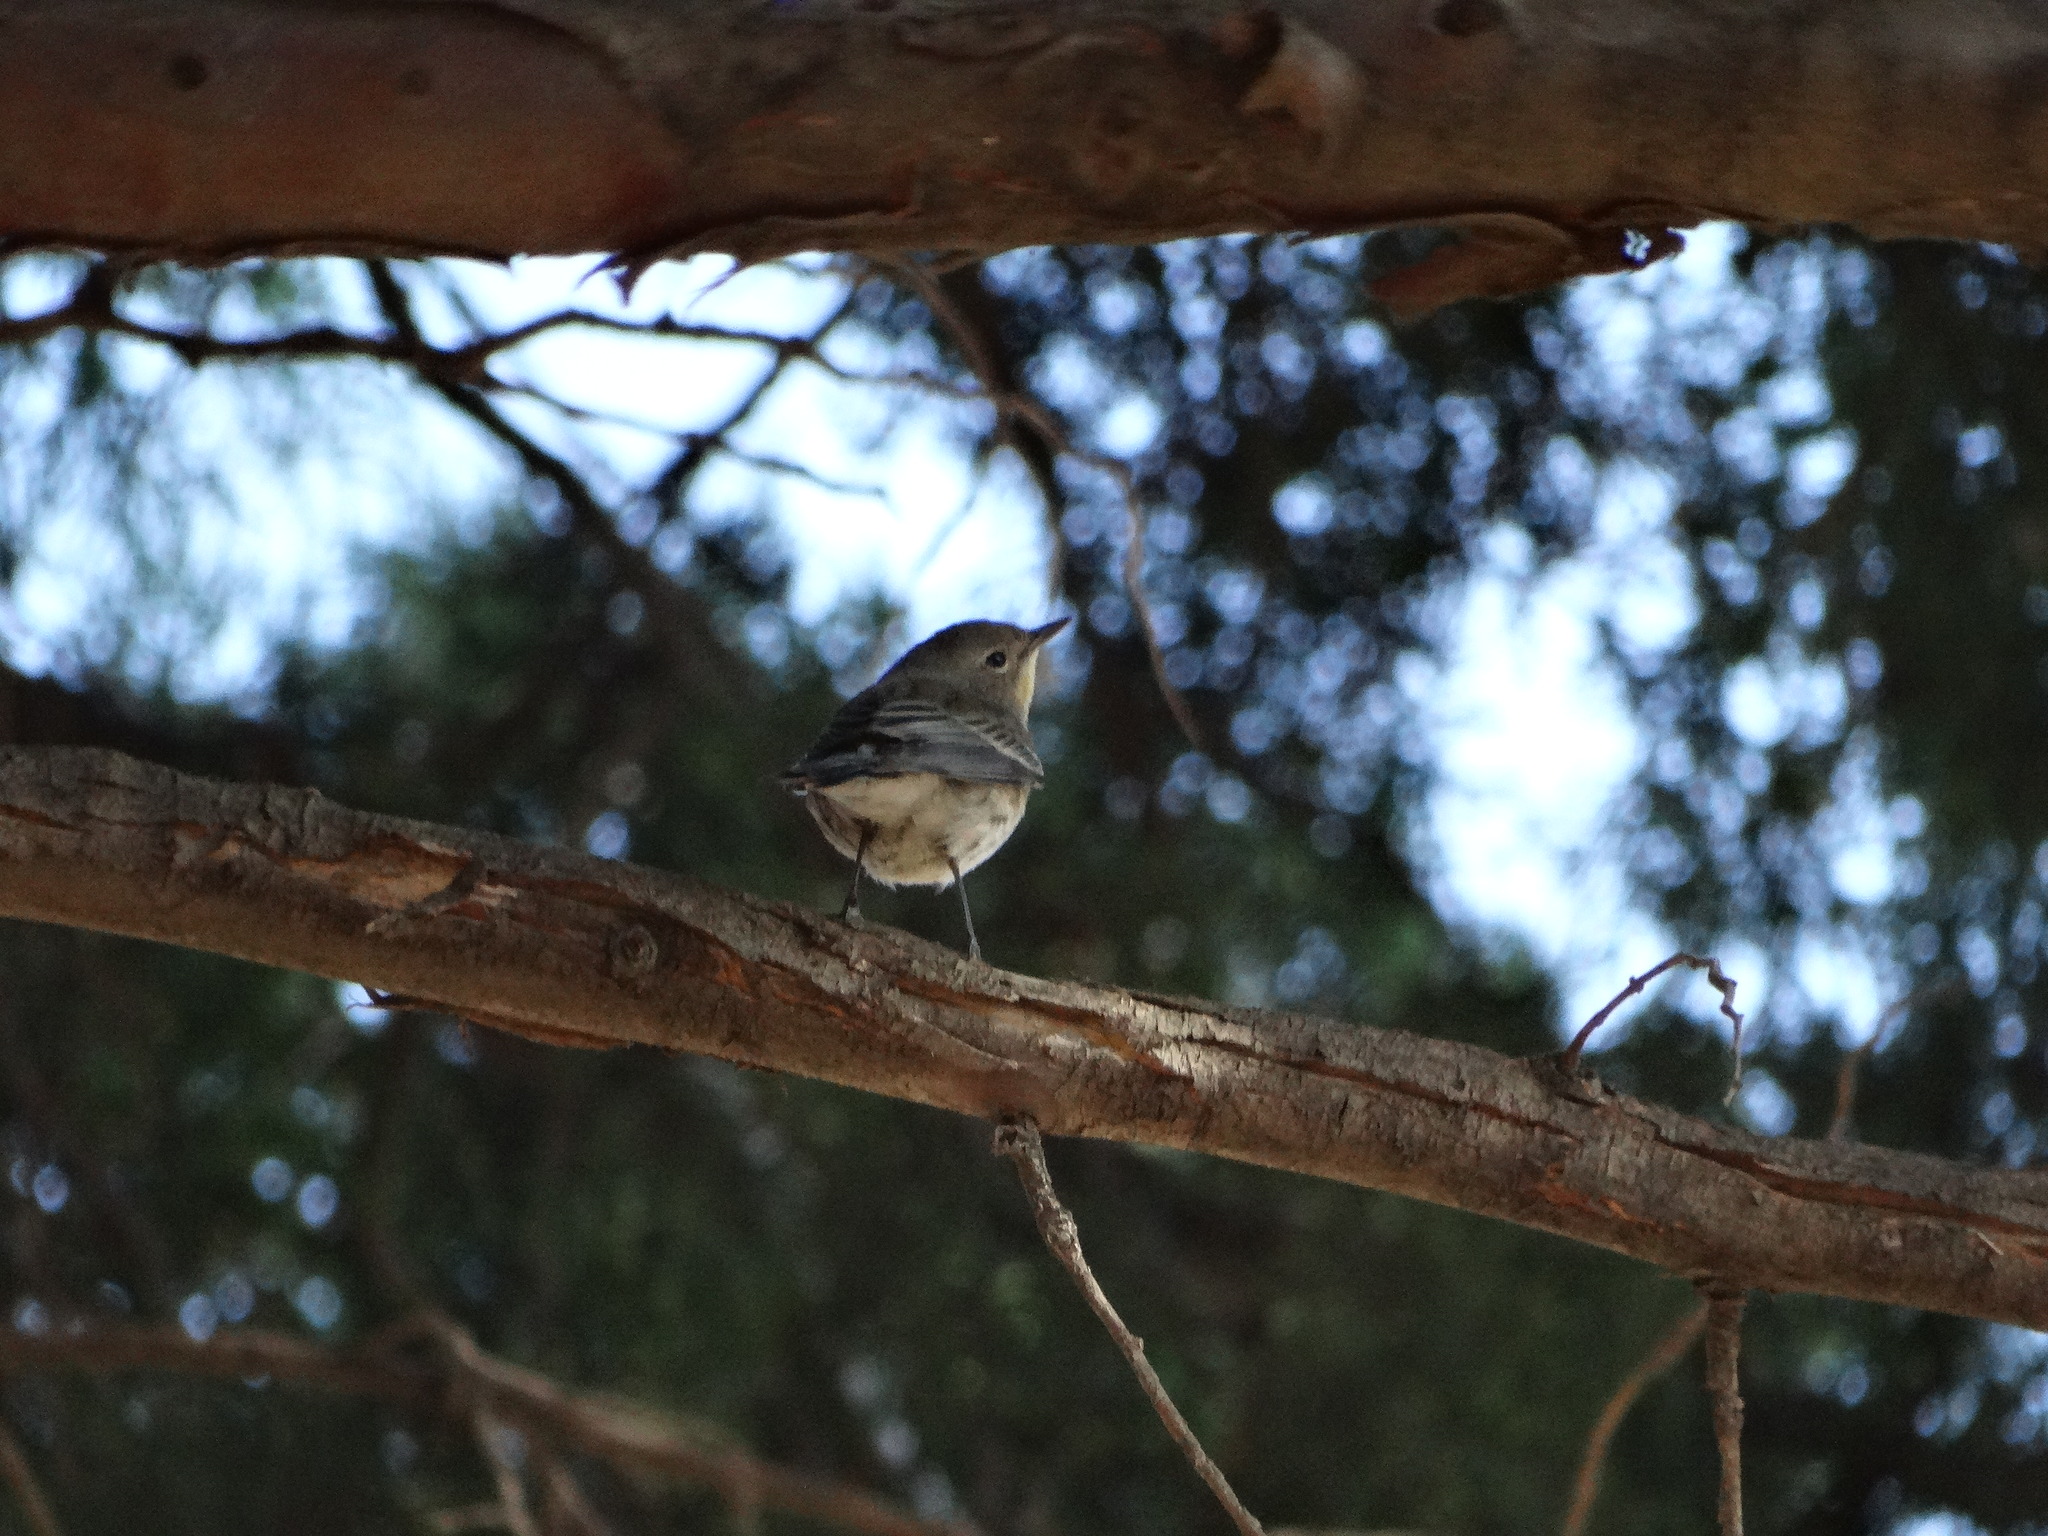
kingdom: Animalia
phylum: Chordata
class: Aves
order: Passeriformes
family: Parulidae
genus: Setophaga
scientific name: Setophaga coronata
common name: Myrtle warbler
